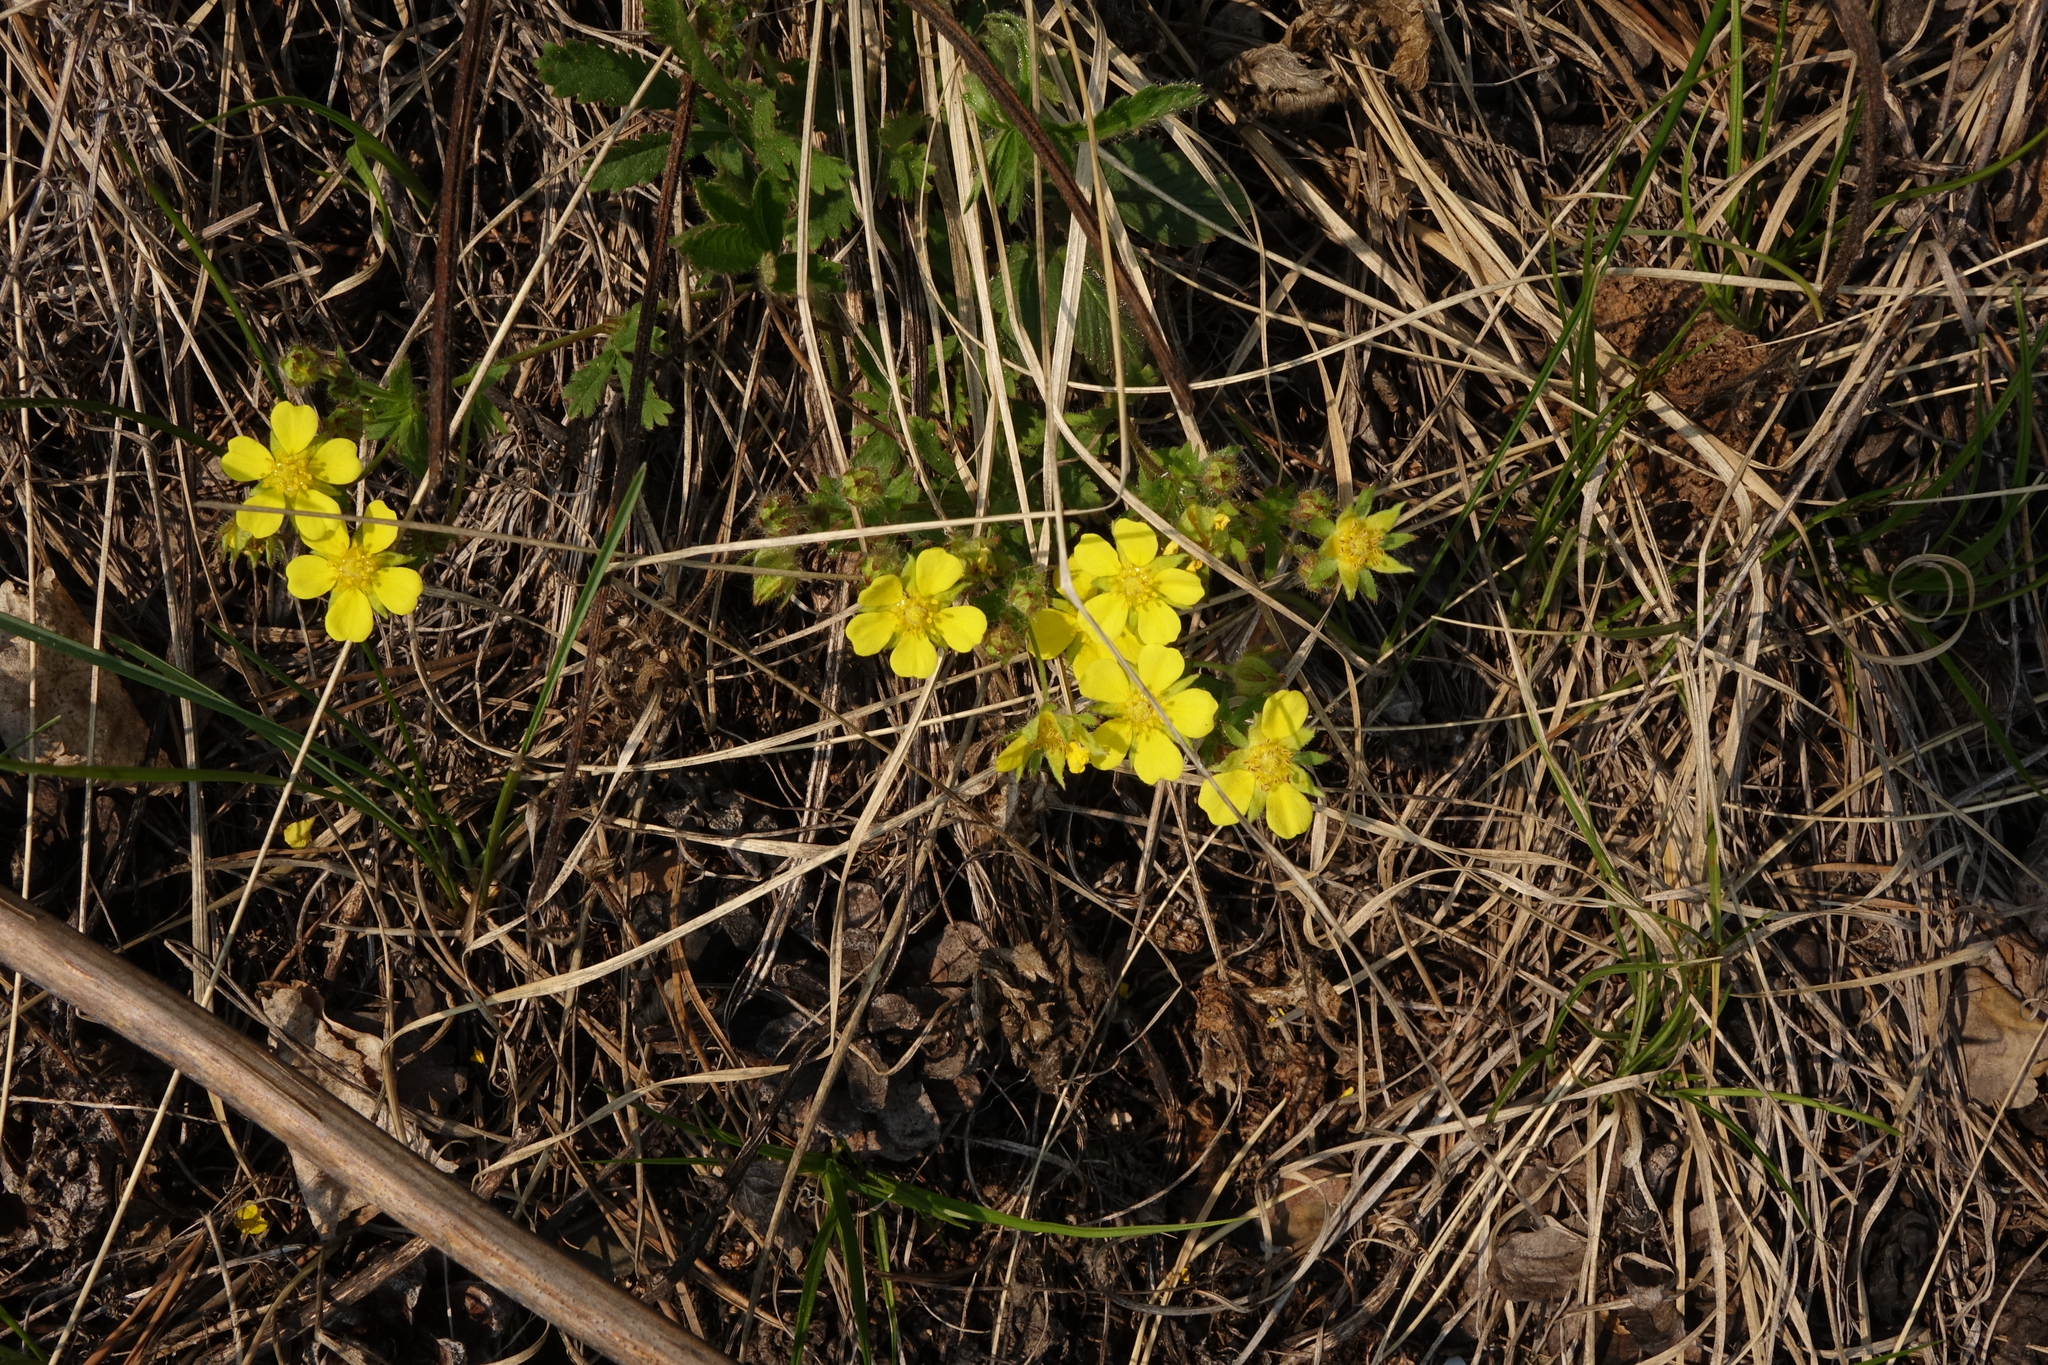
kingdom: Plantae
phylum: Tracheophyta
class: Magnoliopsida
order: Rosales
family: Rosaceae
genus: Potentilla
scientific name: Potentilla humifusa
